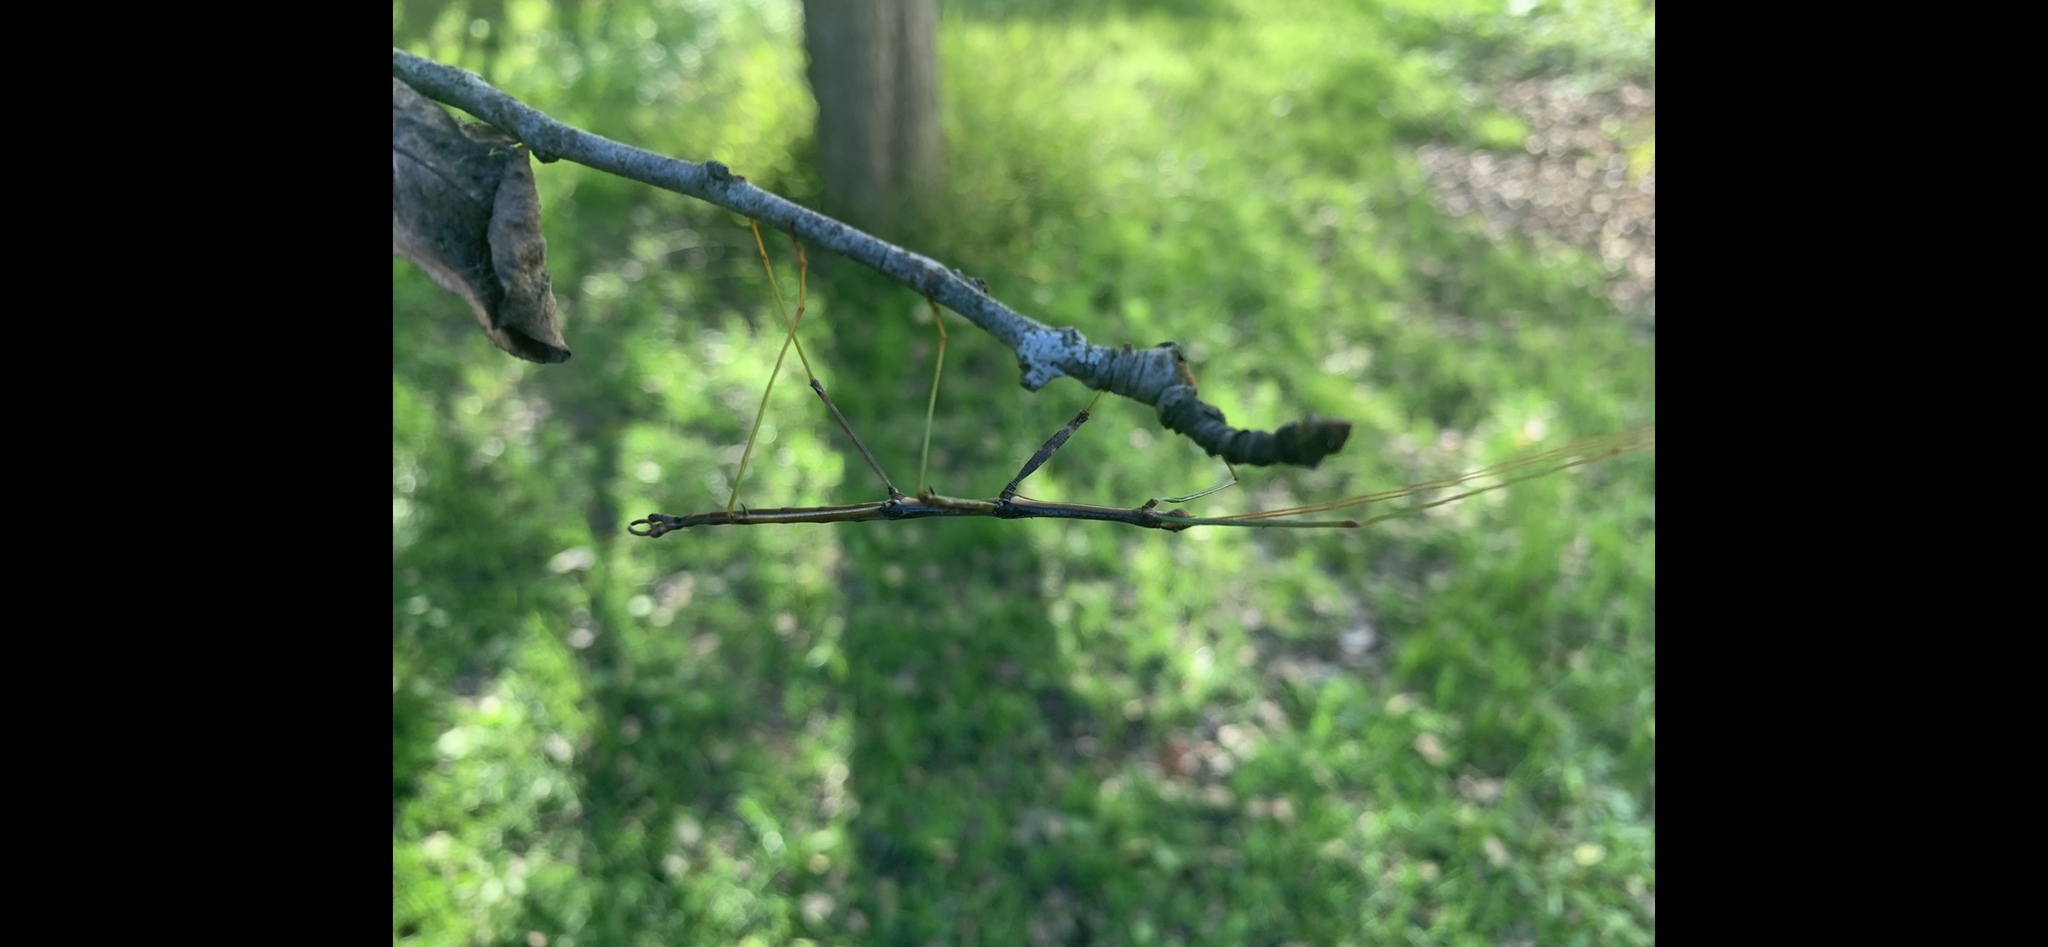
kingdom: Animalia
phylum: Arthropoda
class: Insecta
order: Phasmida
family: Diapheromeridae
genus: Diapheromera
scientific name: Diapheromera femorata
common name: Common american walkingstick
